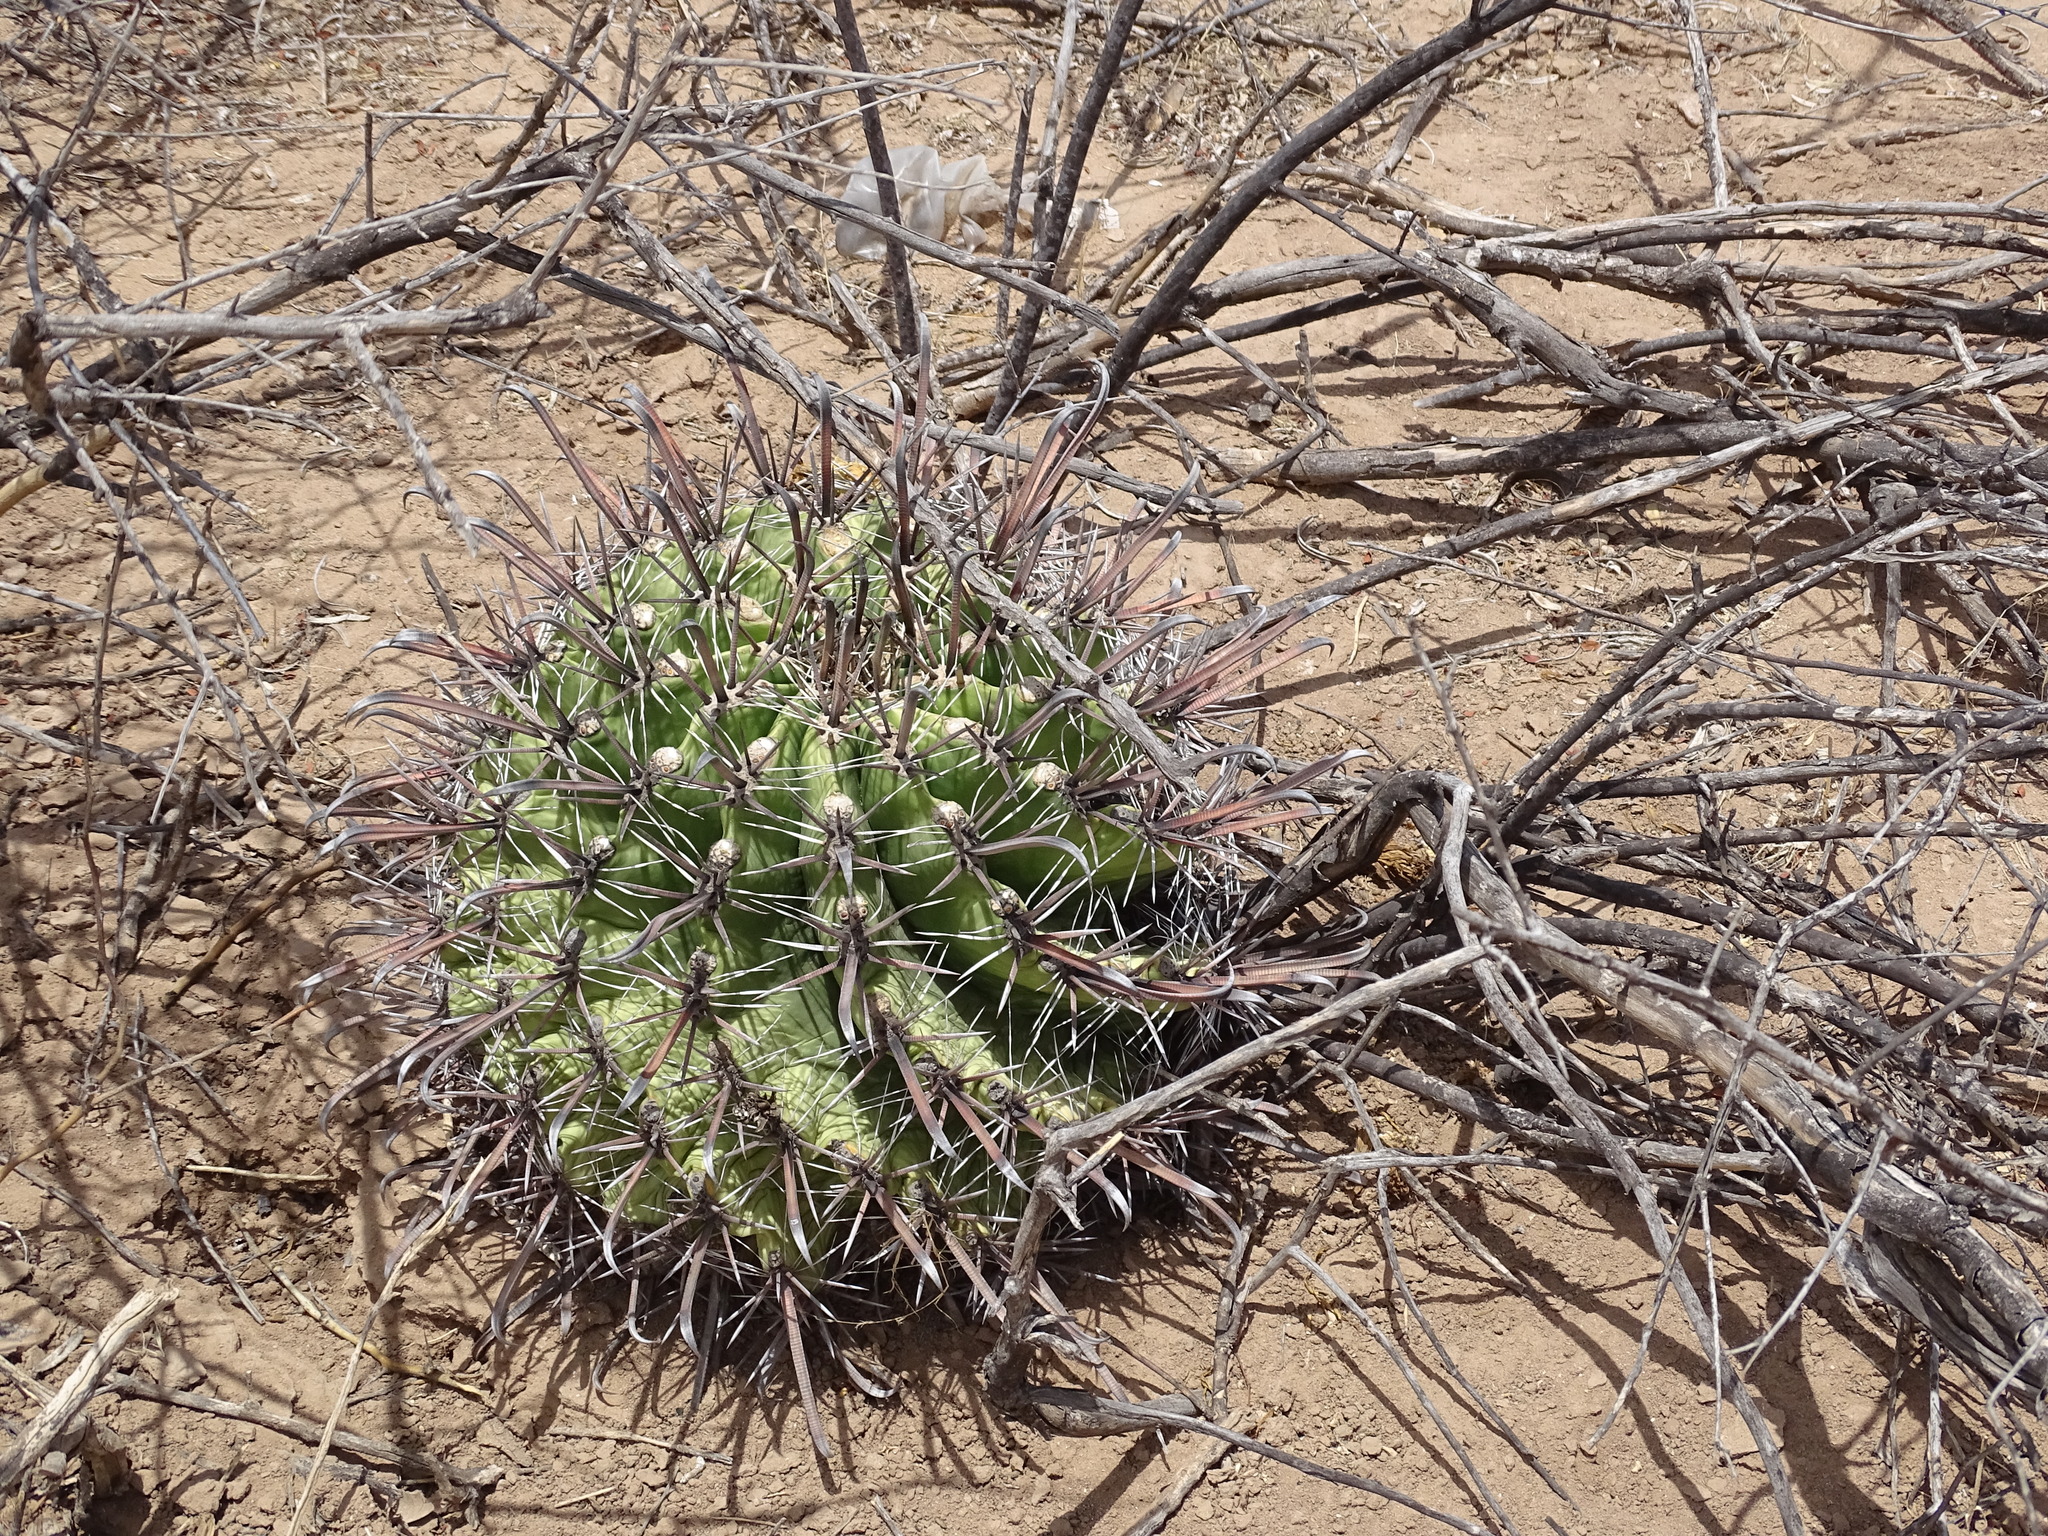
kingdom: Plantae
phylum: Tracheophyta
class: Magnoliopsida
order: Caryophyllales
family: Cactaceae
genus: Ferocactus
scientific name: Ferocactus wislizeni
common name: Candy barrel cactus
